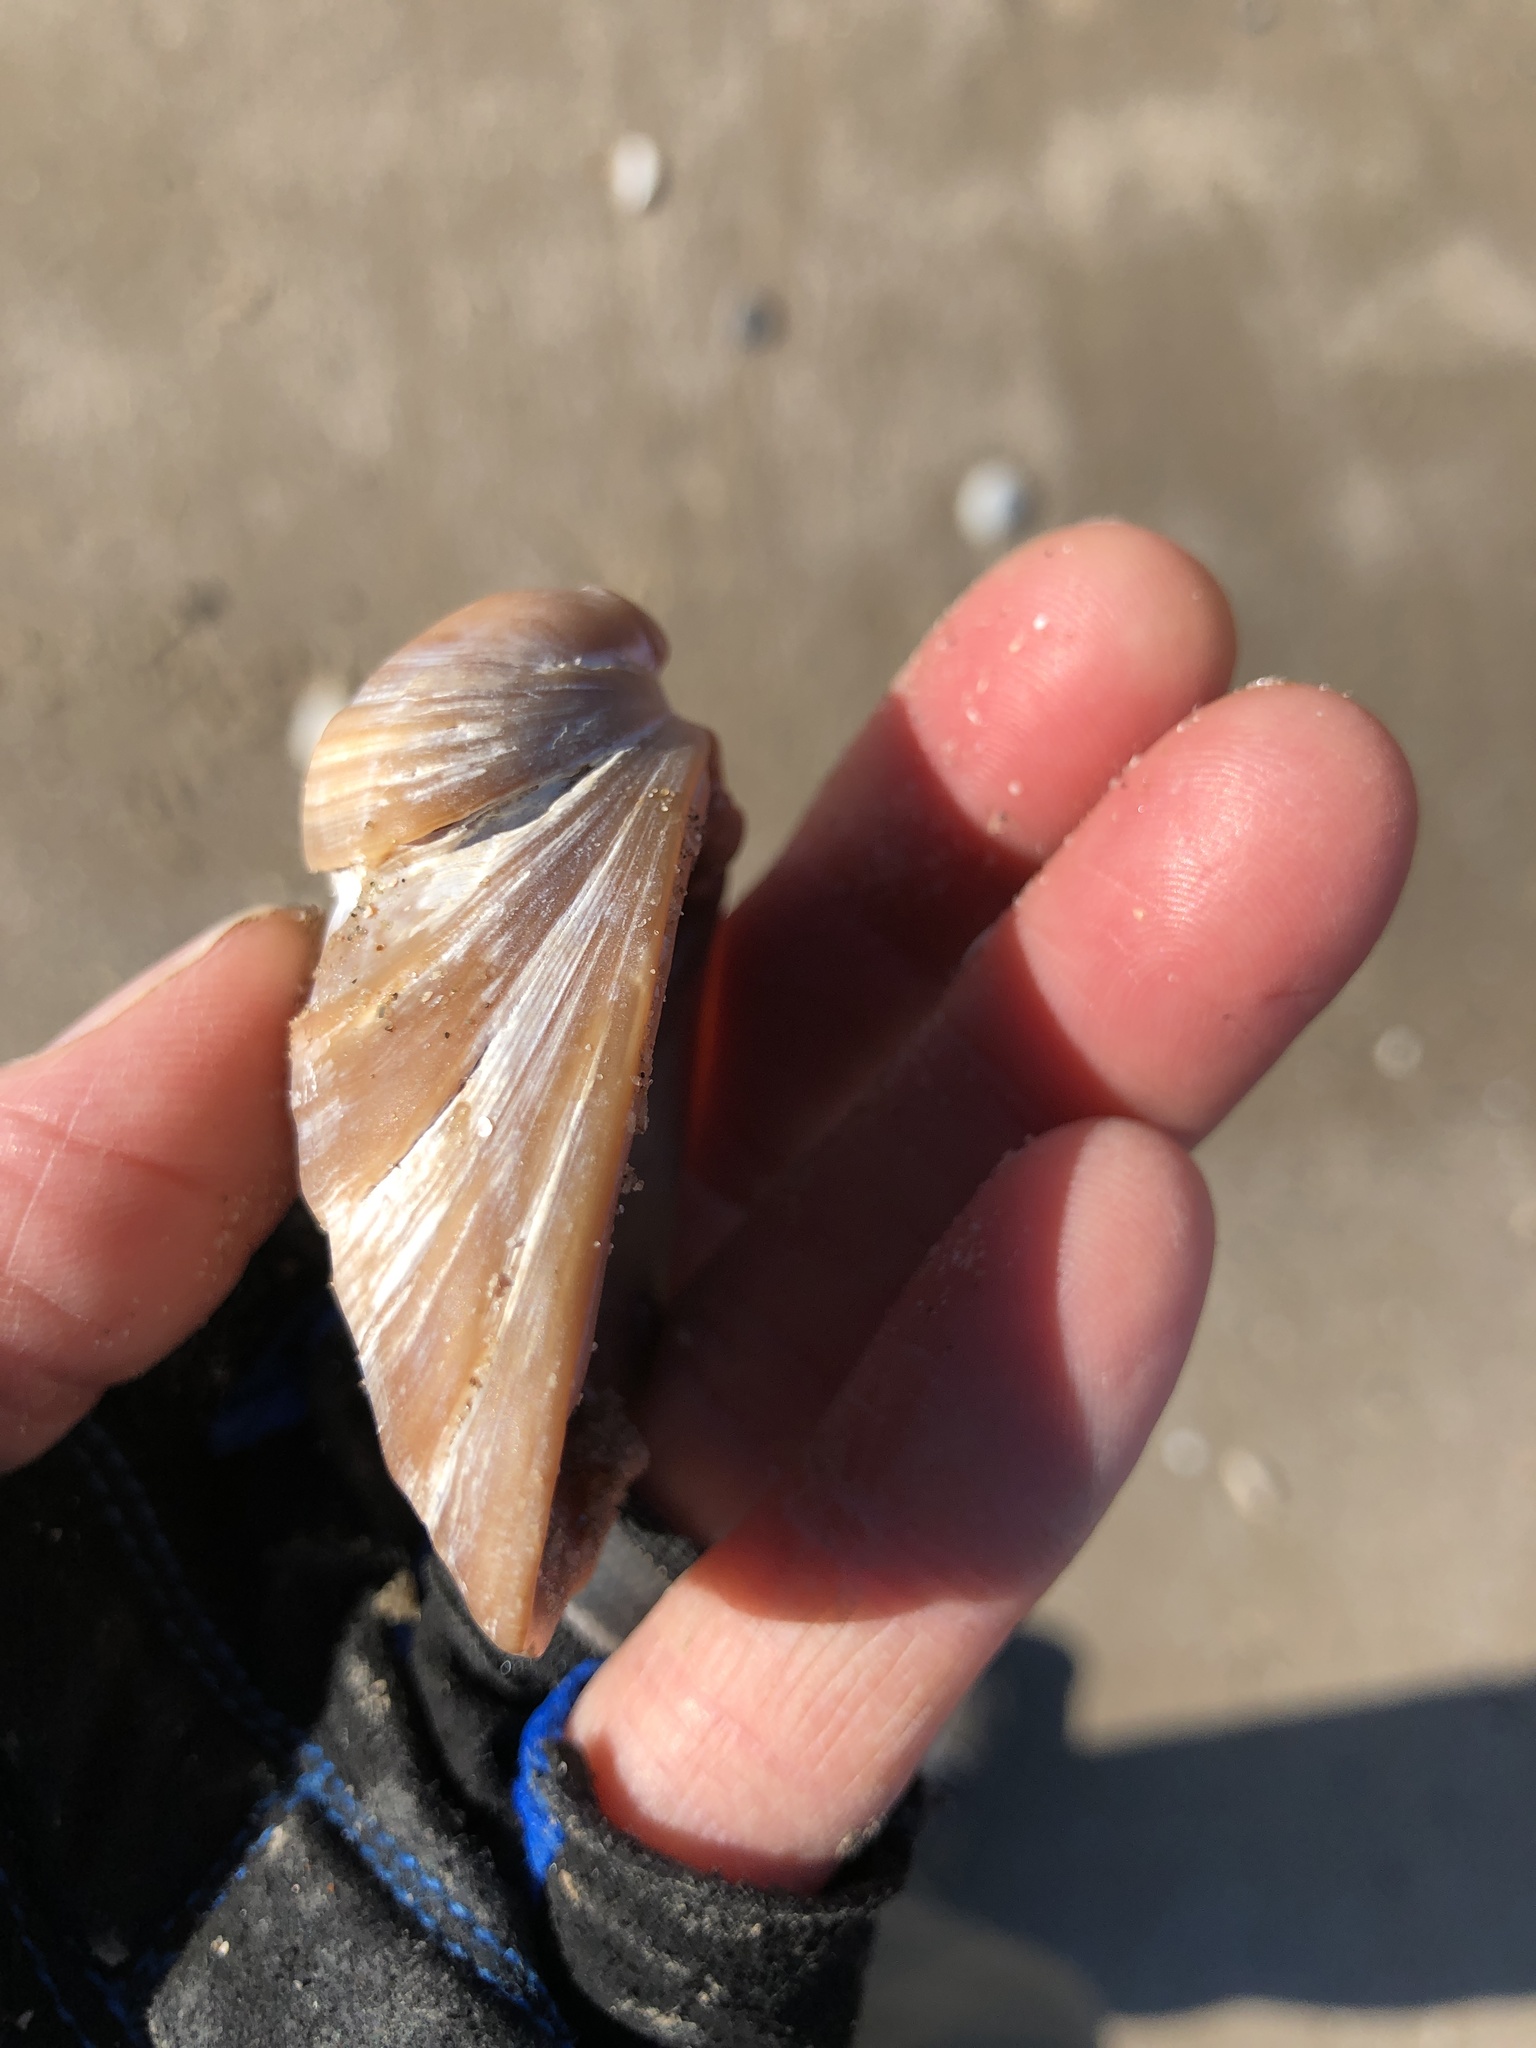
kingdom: Animalia
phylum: Mollusca
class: Bivalvia
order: Venerida
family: Mactridae
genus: Rangia
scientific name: Rangia cuneata
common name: Atlantic rangia
